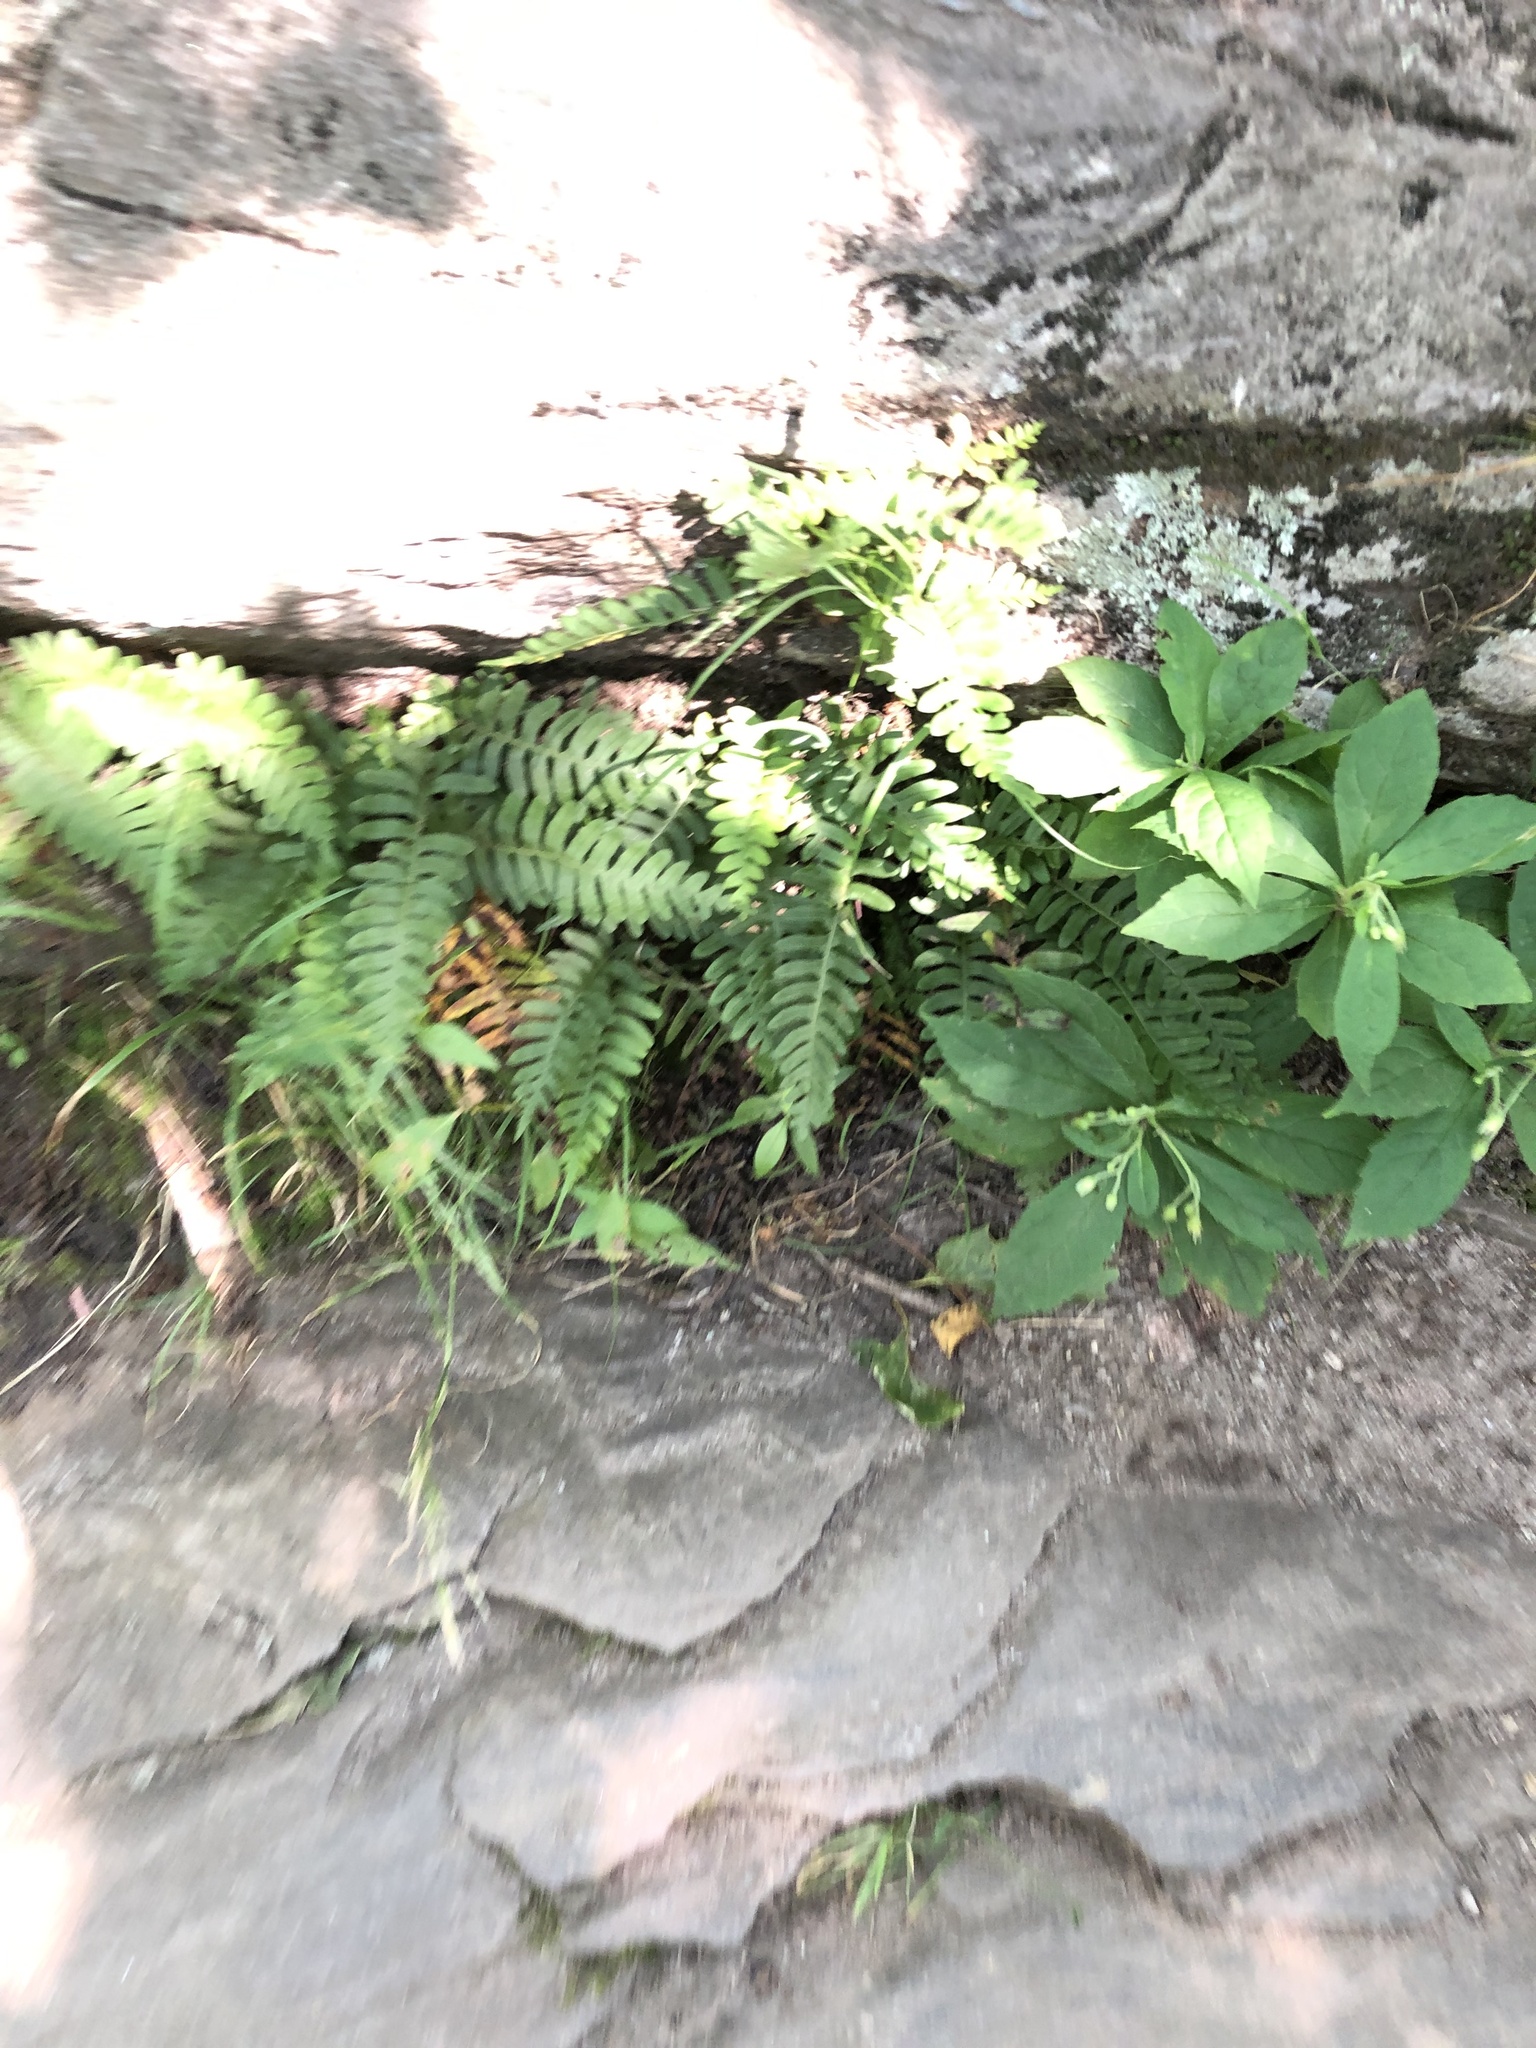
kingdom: Plantae
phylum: Tracheophyta
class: Polypodiopsida
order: Polypodiales
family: Polypodiaceae
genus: Polypodium
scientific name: Polypodium virginianum
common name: American wall fern
